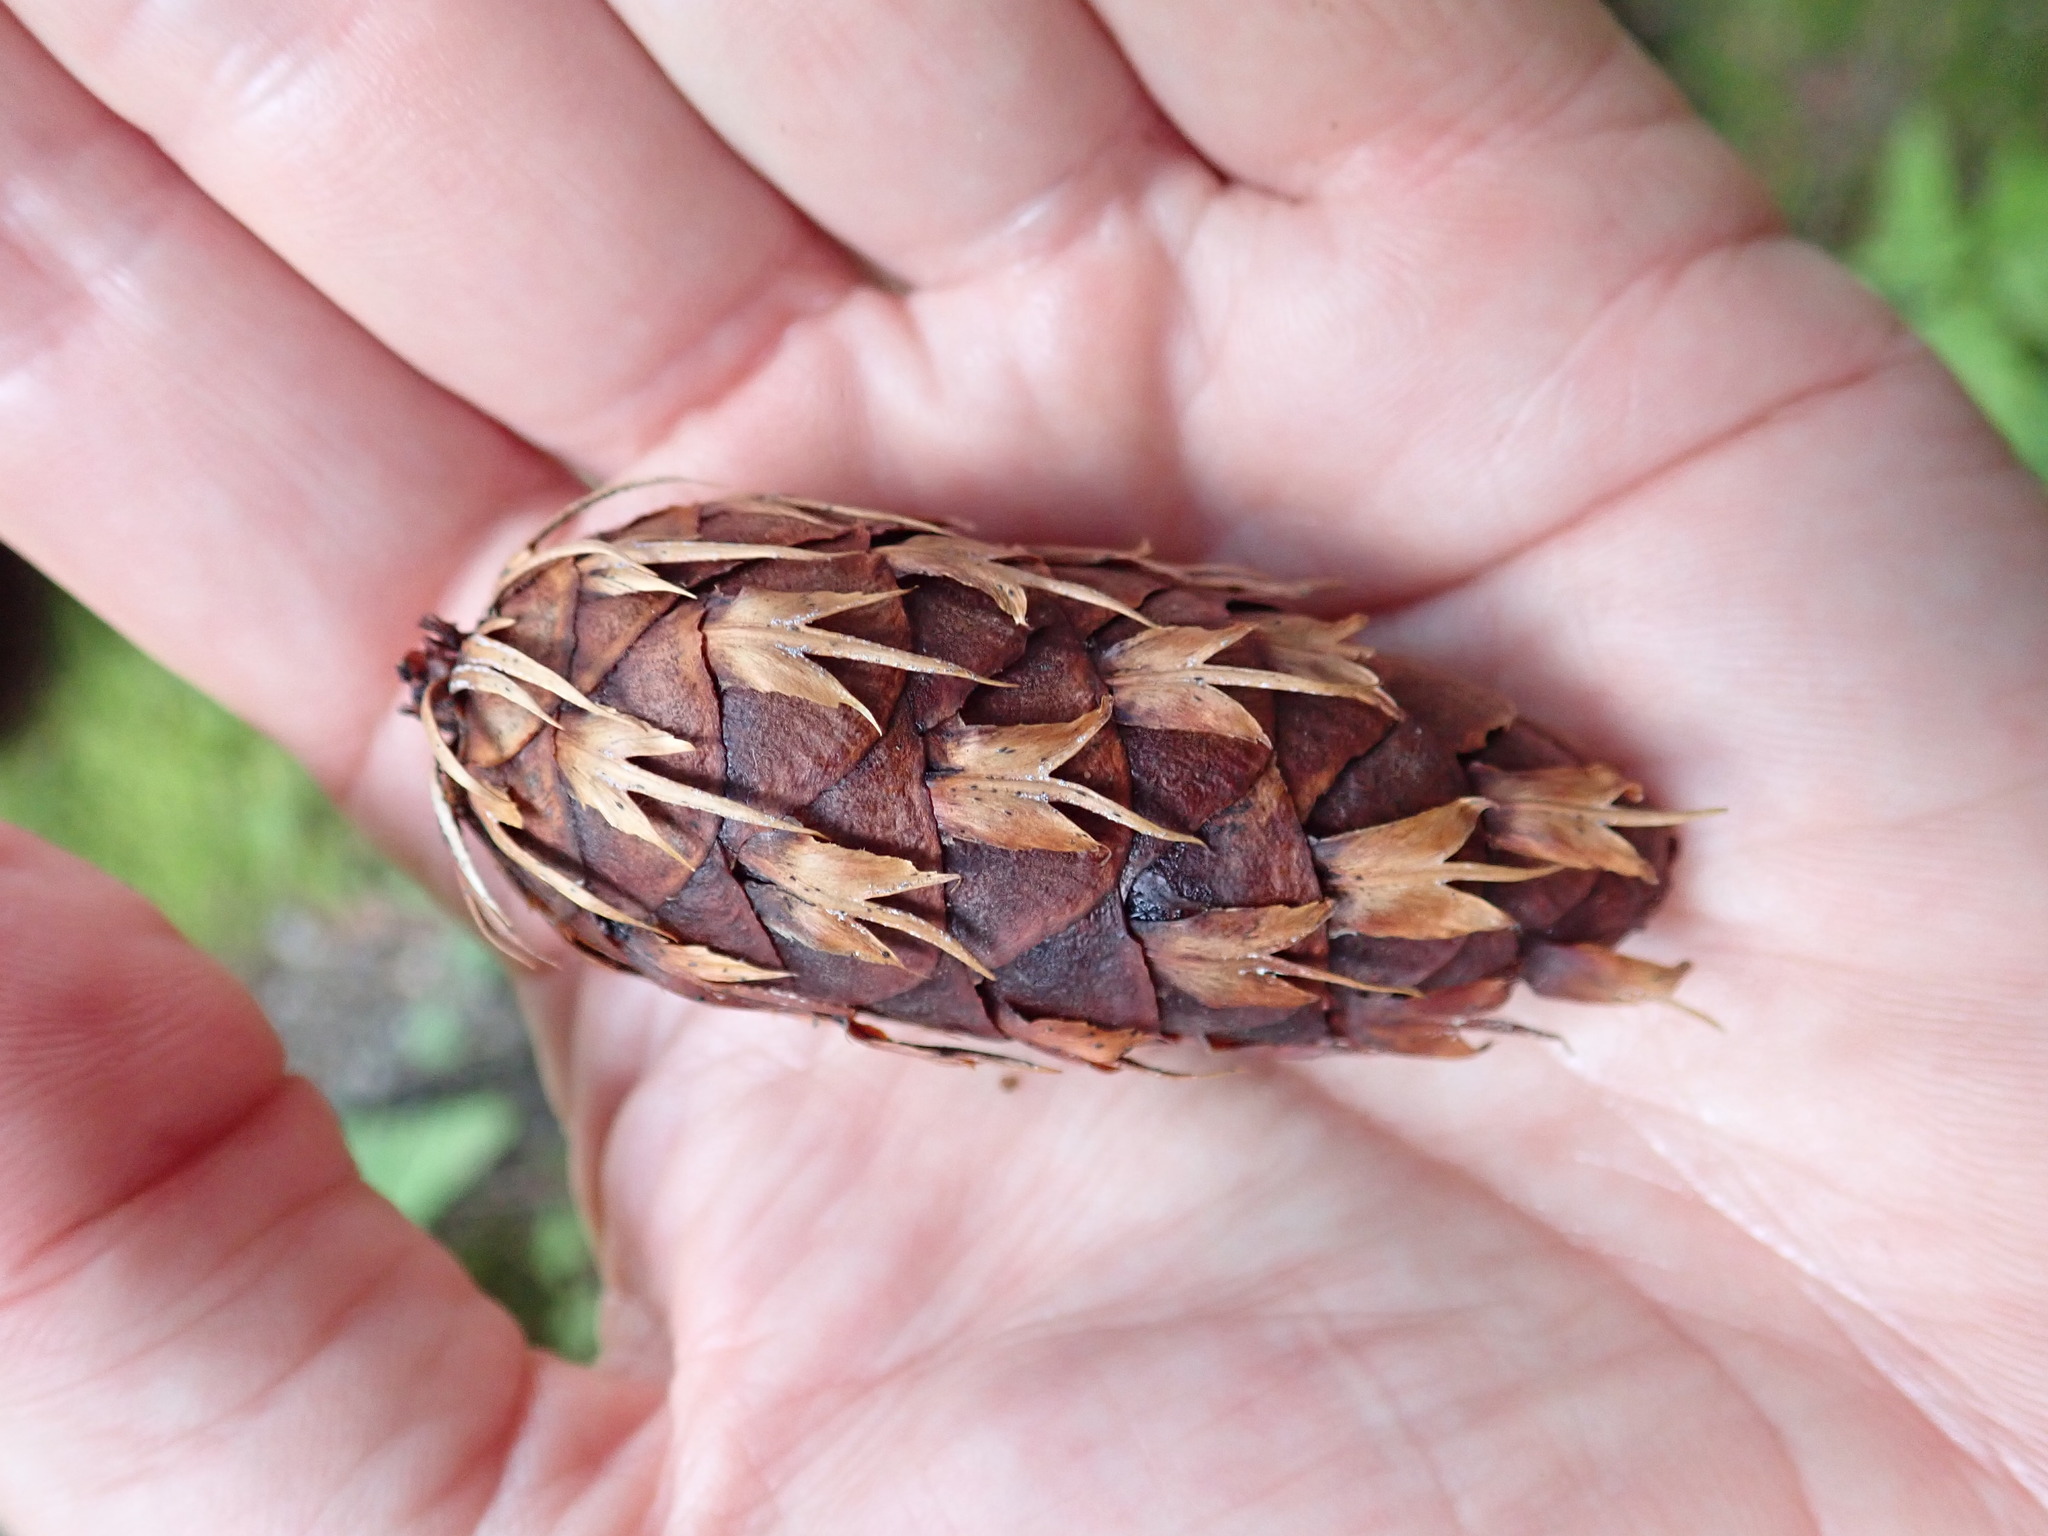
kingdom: Plantae
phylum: Tracheophyta
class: Pinopsida
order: Pinales
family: Pinaceae
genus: Pseudotsuga
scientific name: Pseudotsuga menziesii
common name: Douglas fir
